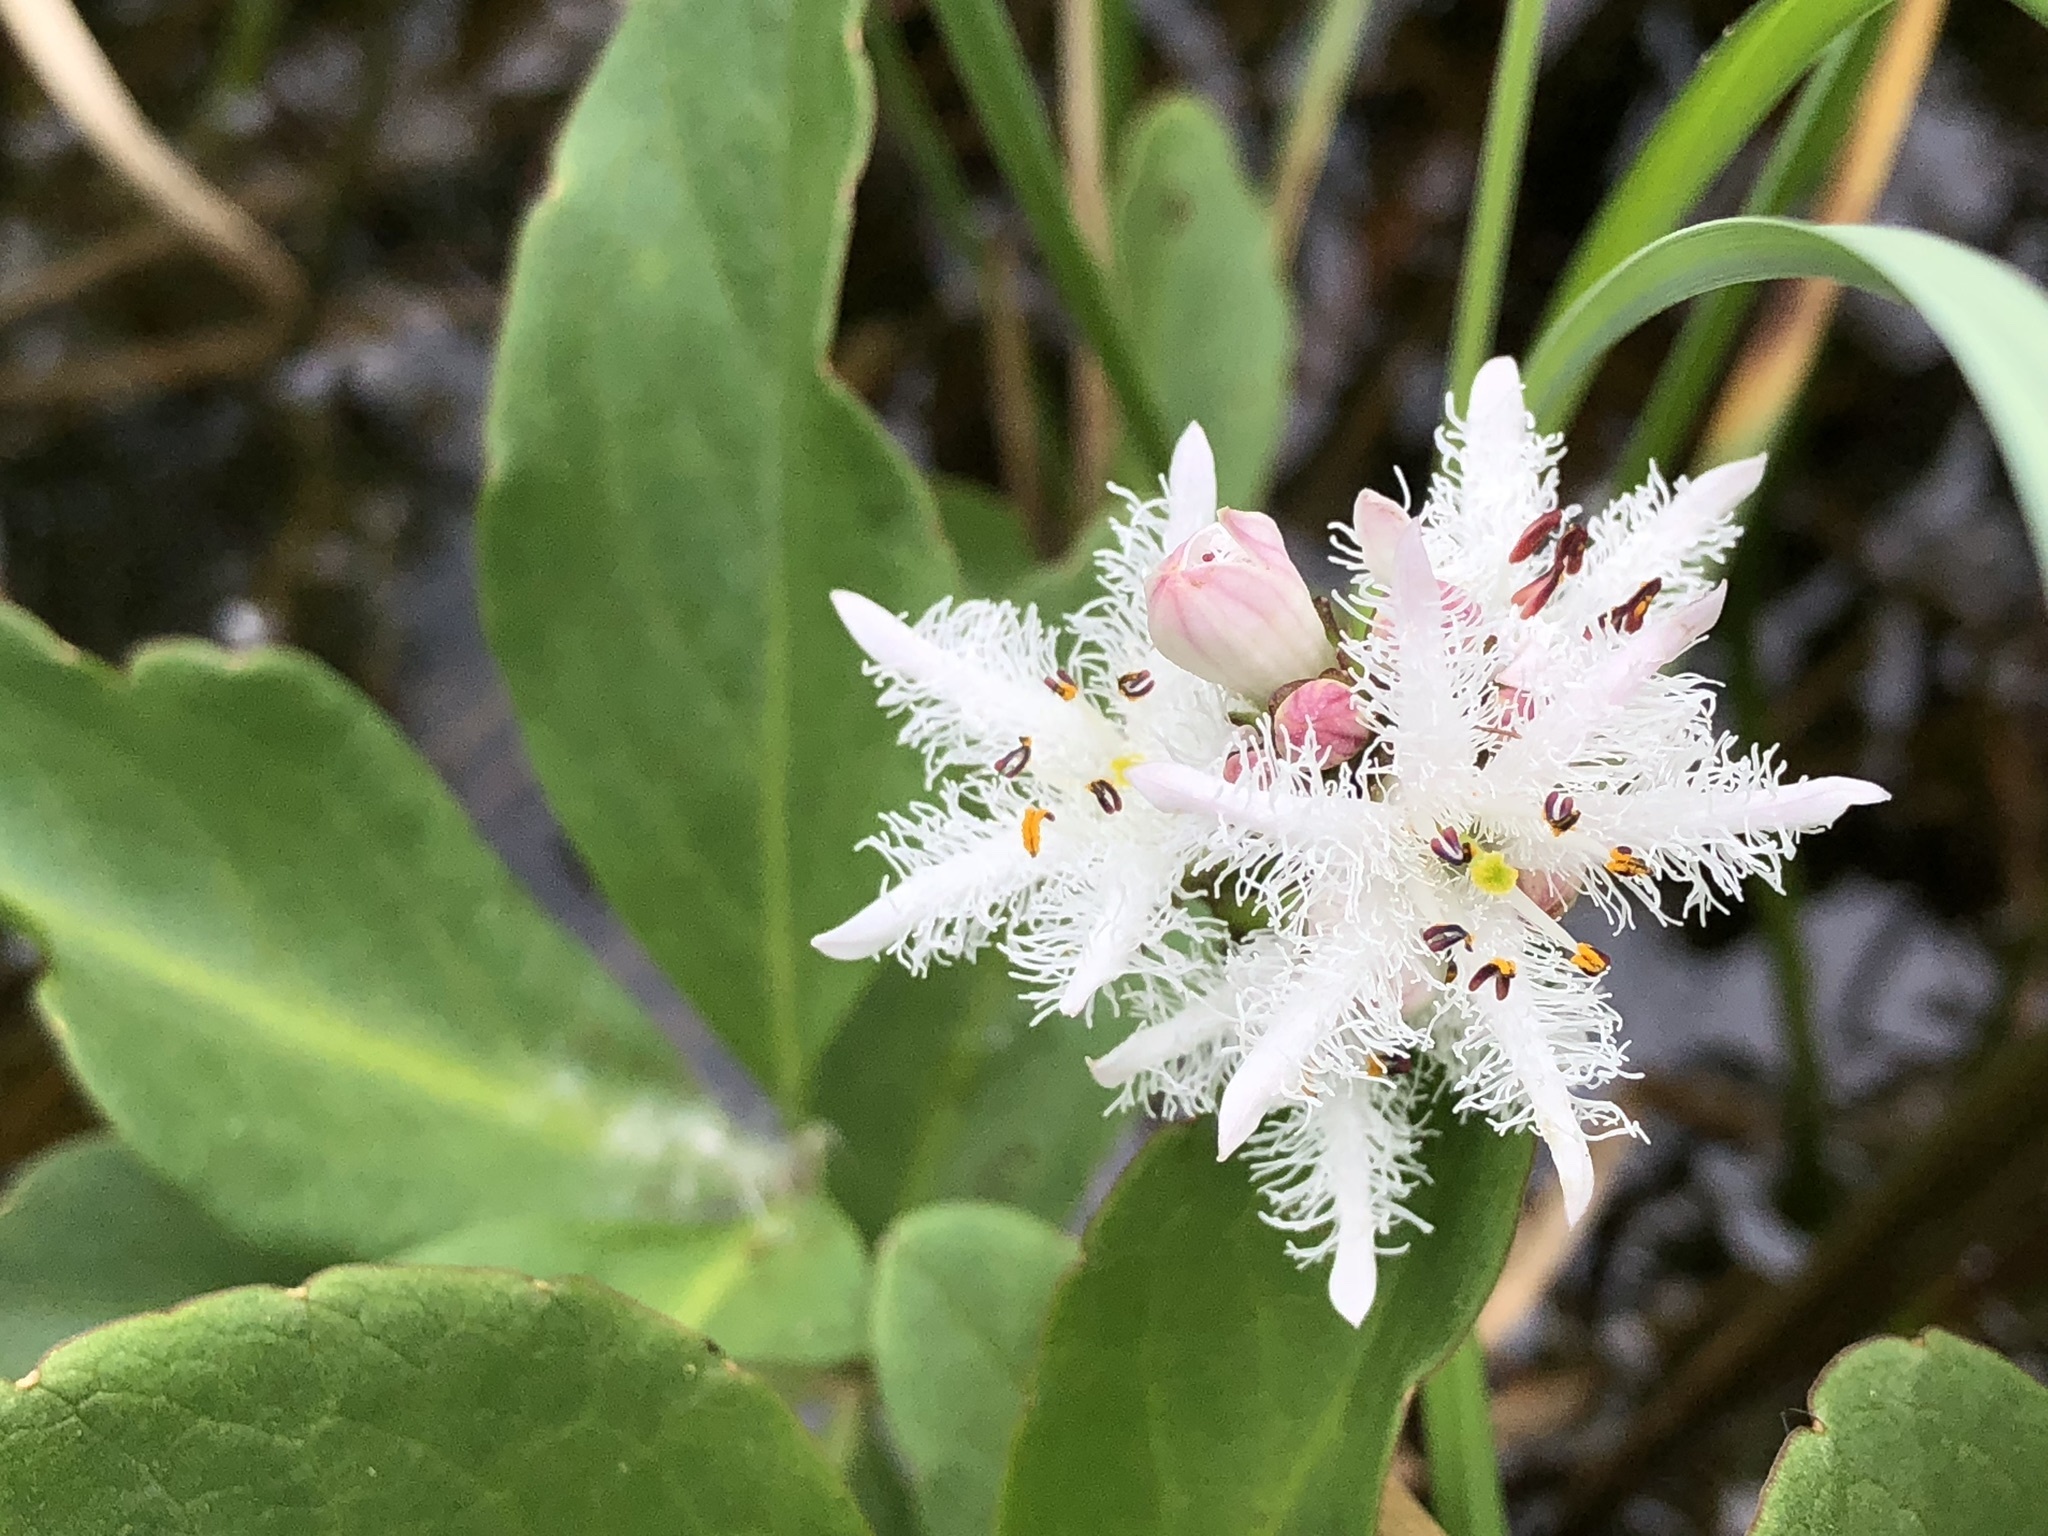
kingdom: Plantae
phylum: Tracheophyta
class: Magnoliopsida
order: Asterales
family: Menyanthaceae
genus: Menyanthes
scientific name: Menyanthes trifoliata
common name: Bogbean
